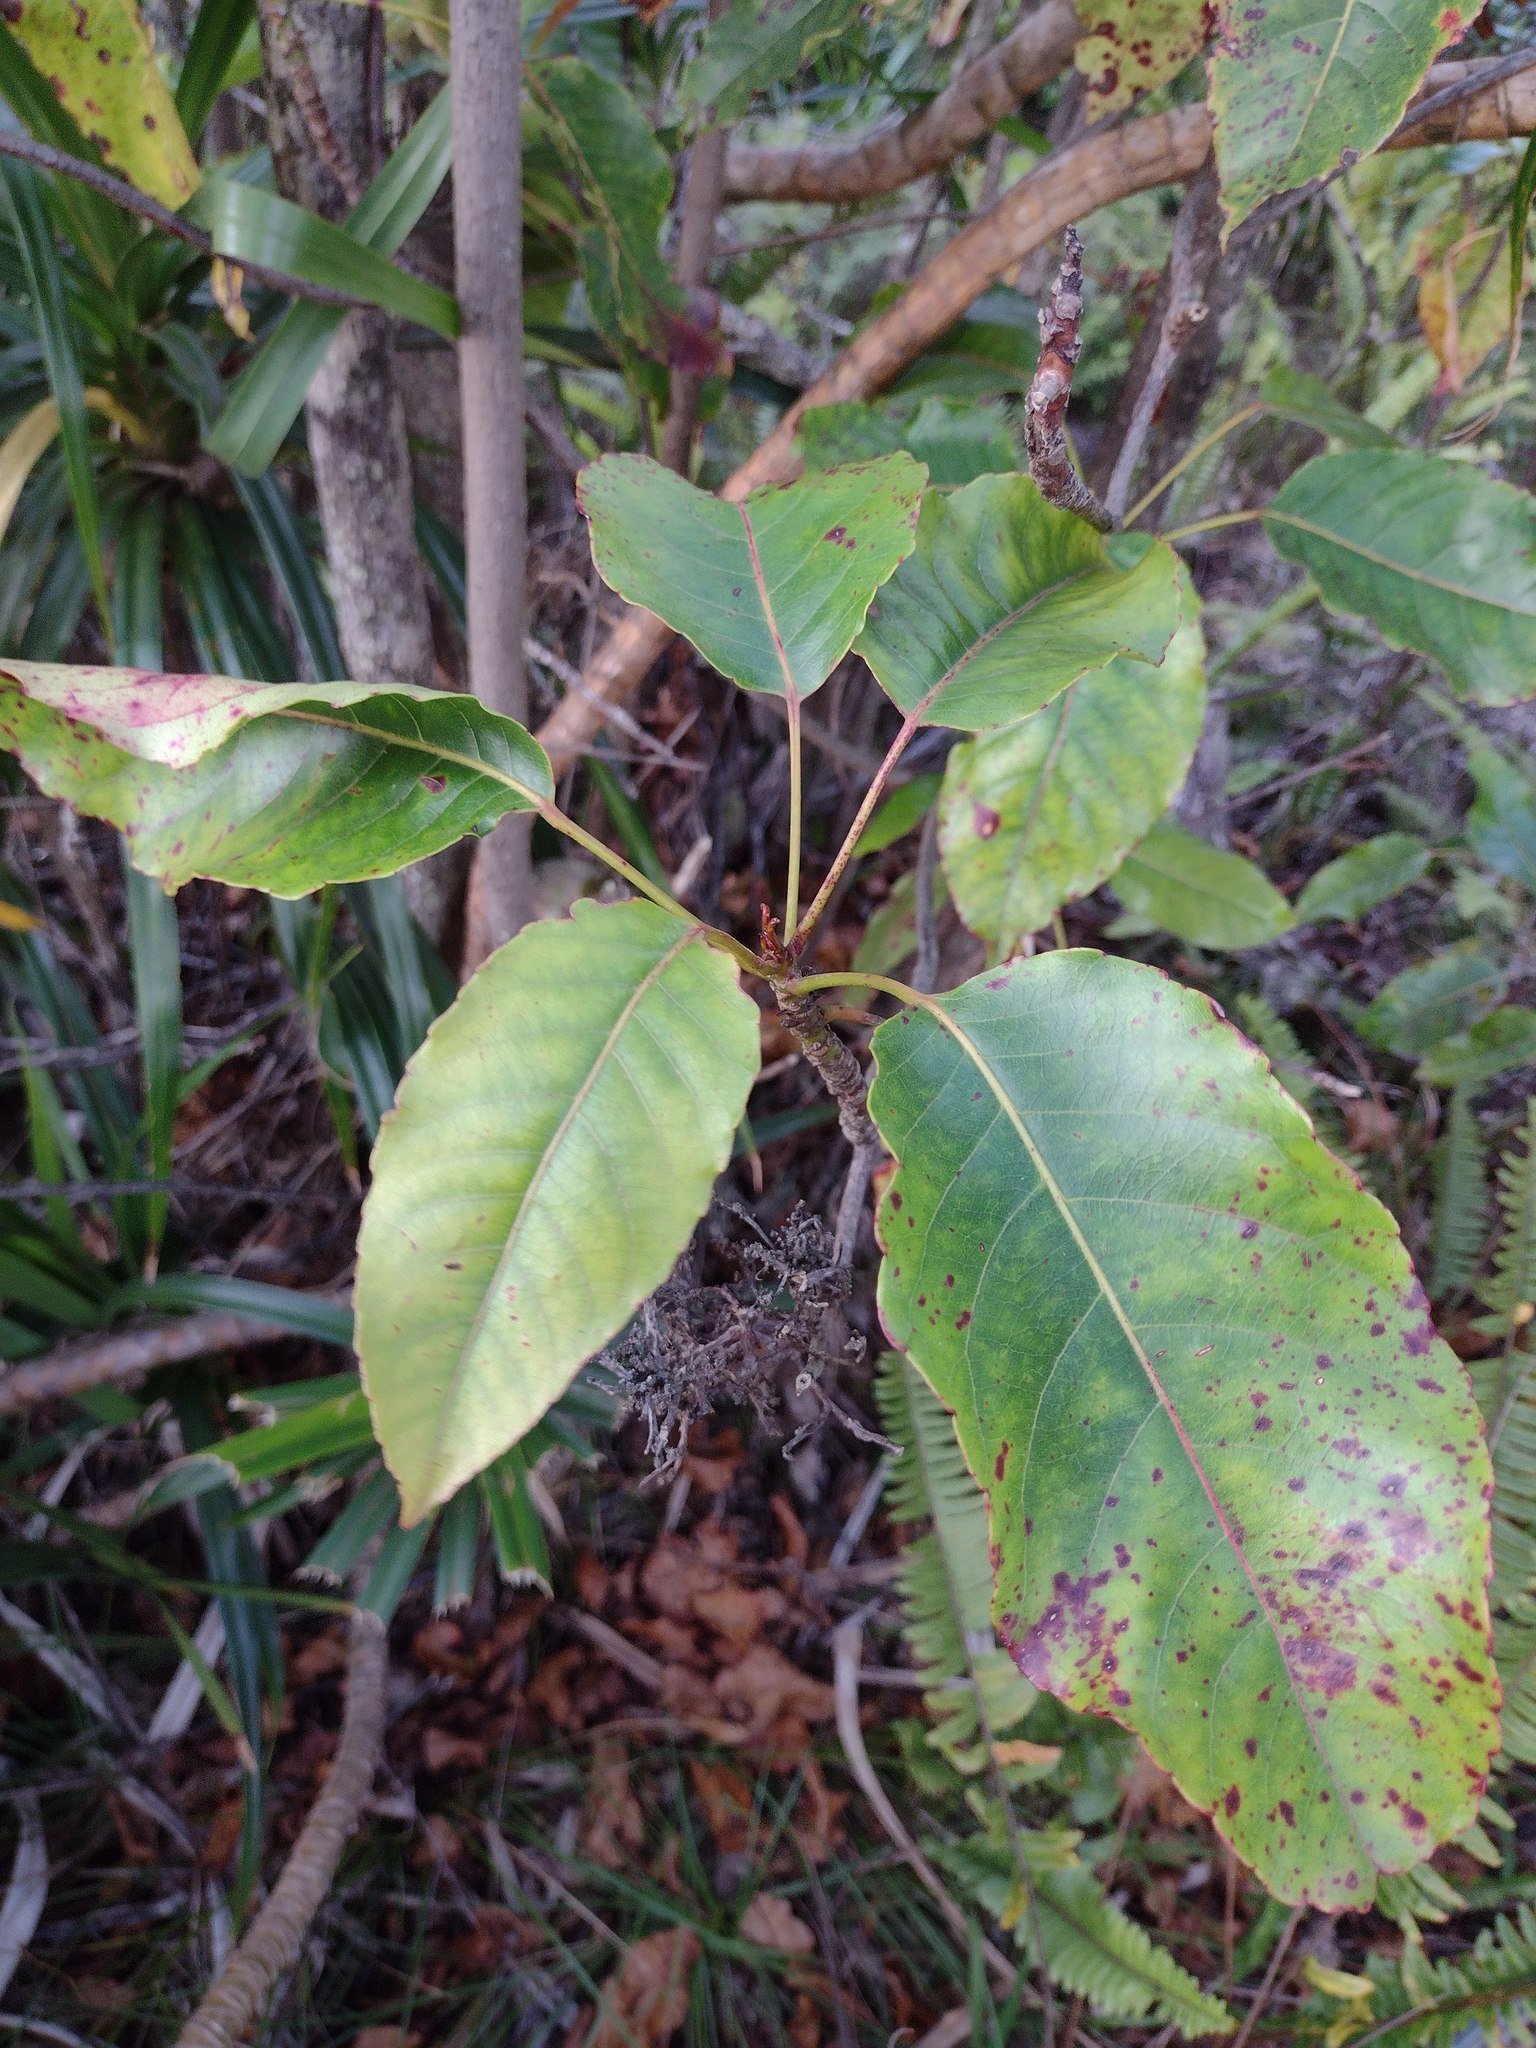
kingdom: Plantae
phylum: Tracheophyta
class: Magnoliopsida
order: Oxalidales
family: Elaeocarpaceae
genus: Elaeocarpus
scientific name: Elaeocarpus bifidus
